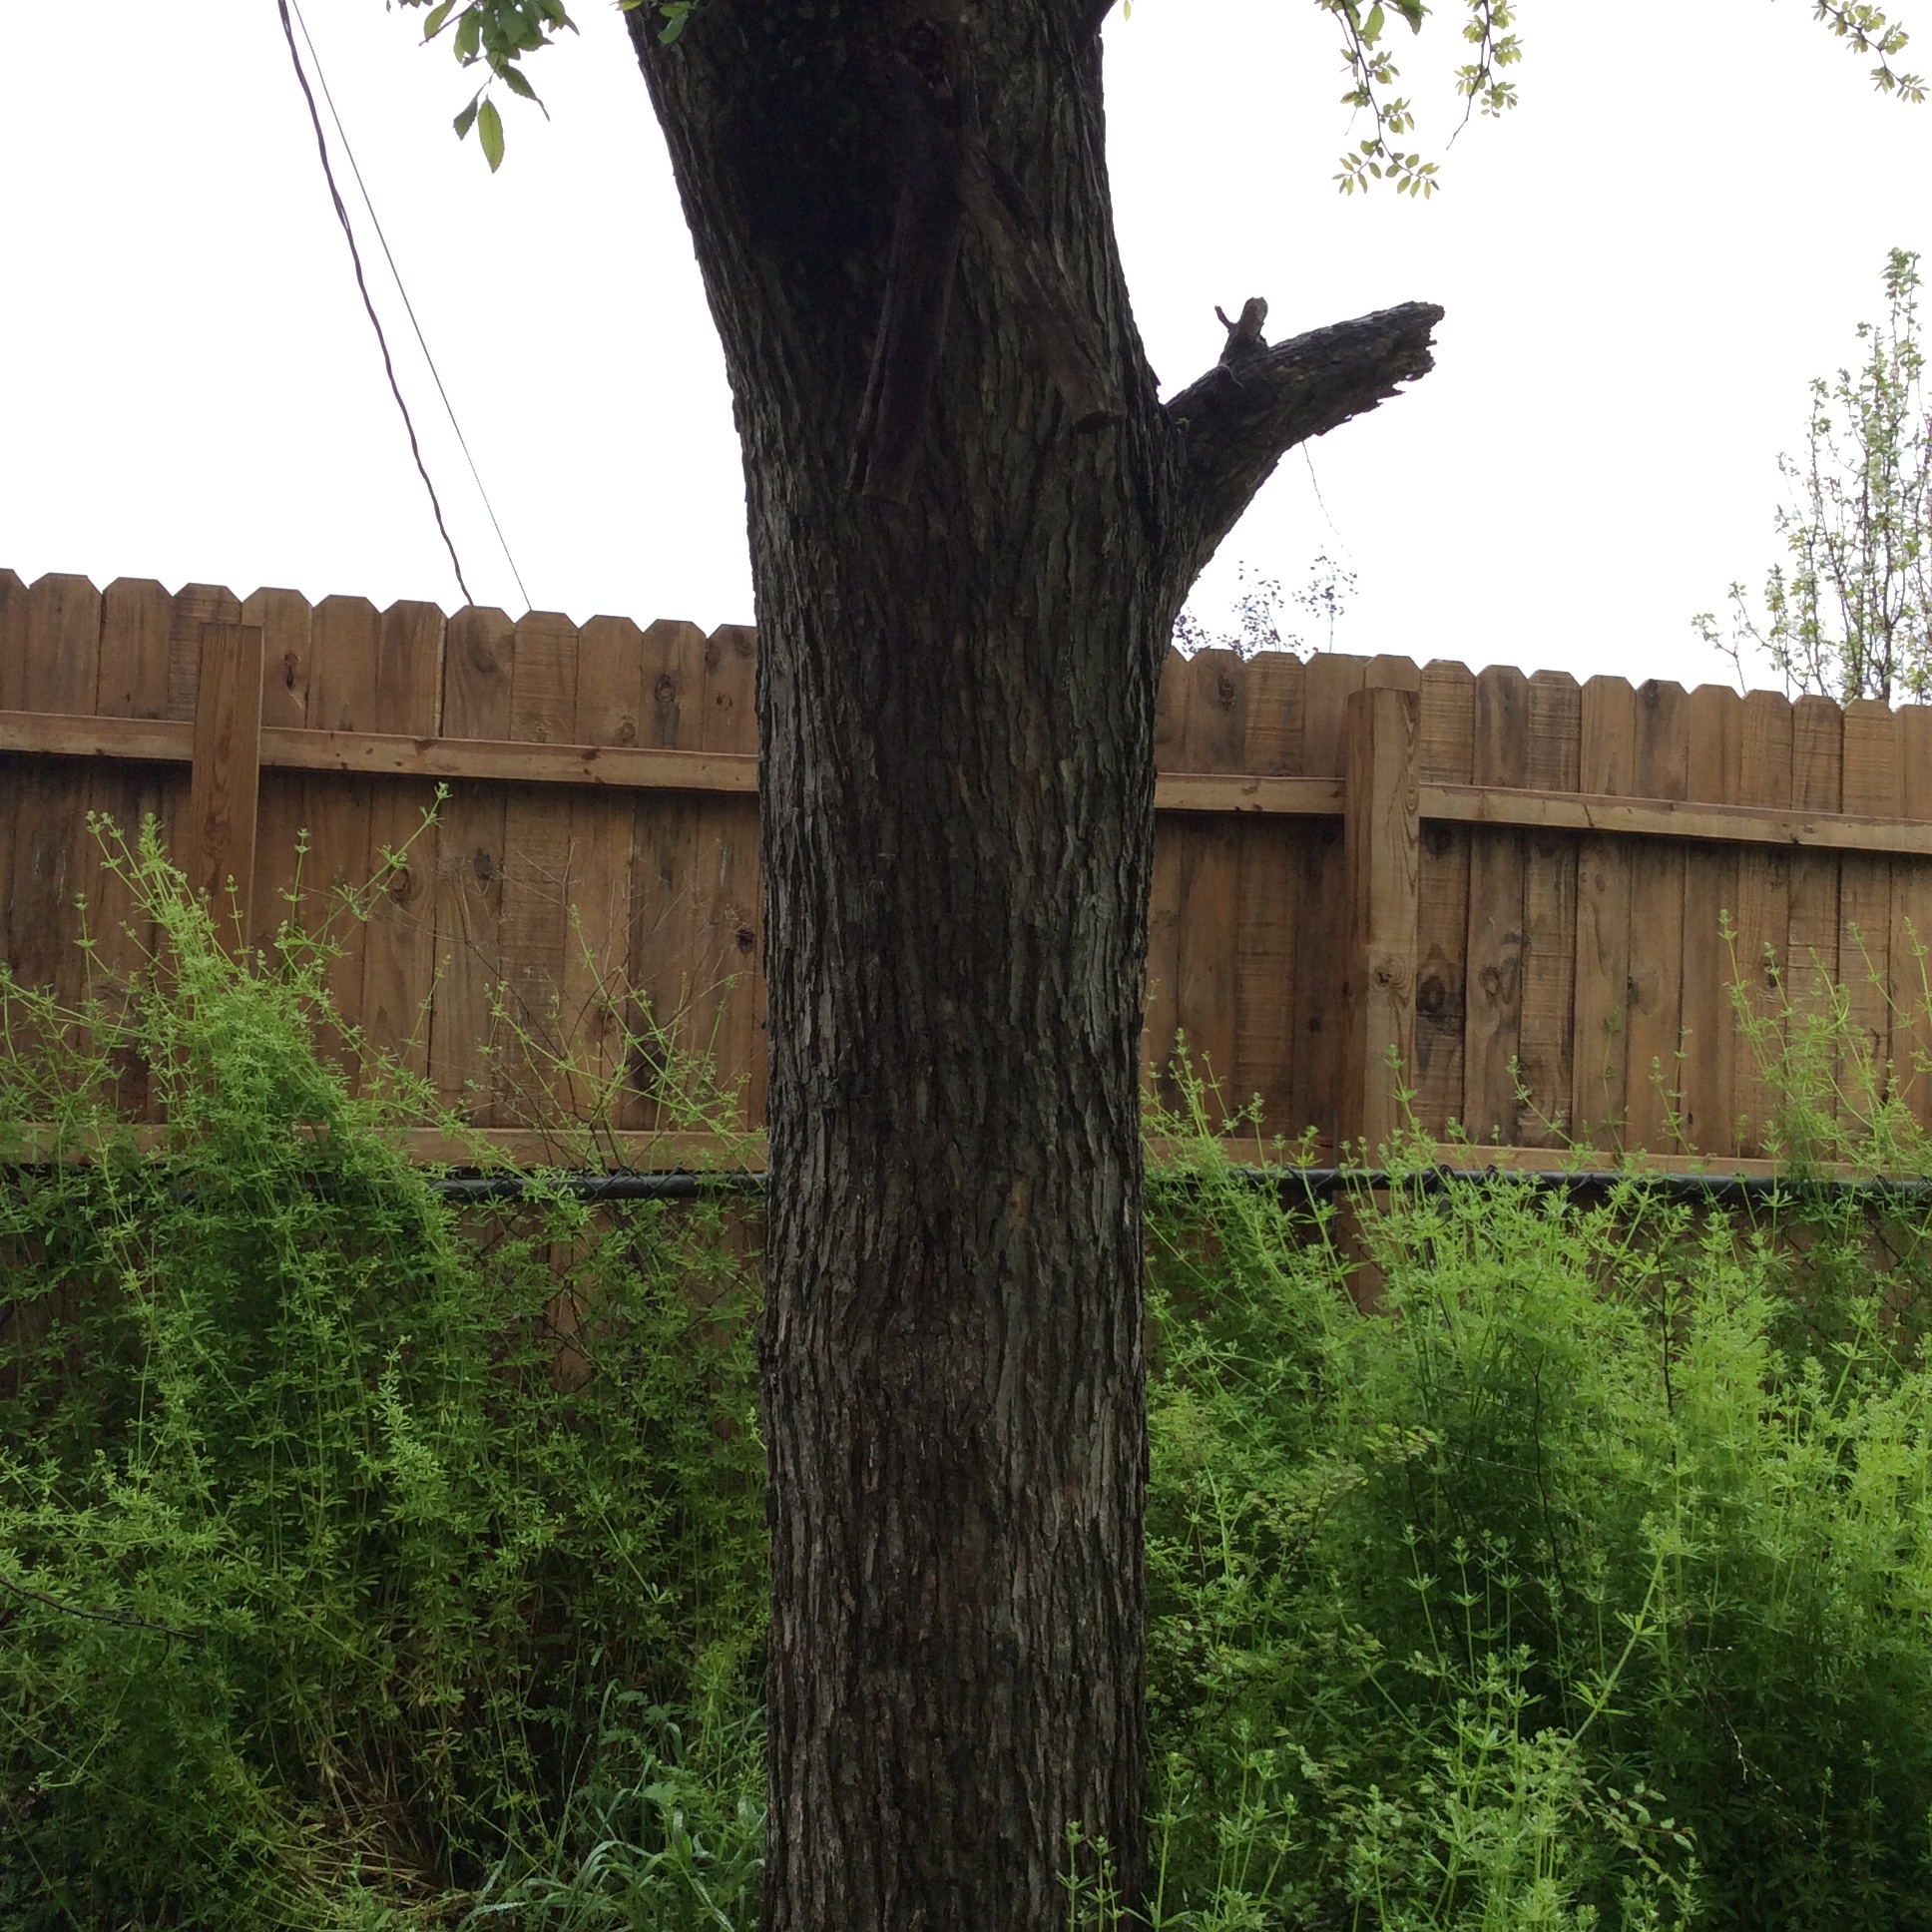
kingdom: Plantae
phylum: Tracheophyta
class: Magnoliopsida
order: Rosales
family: Ulmaceae
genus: Ulmus
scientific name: Ulmus crassifolia
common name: Basket elm
